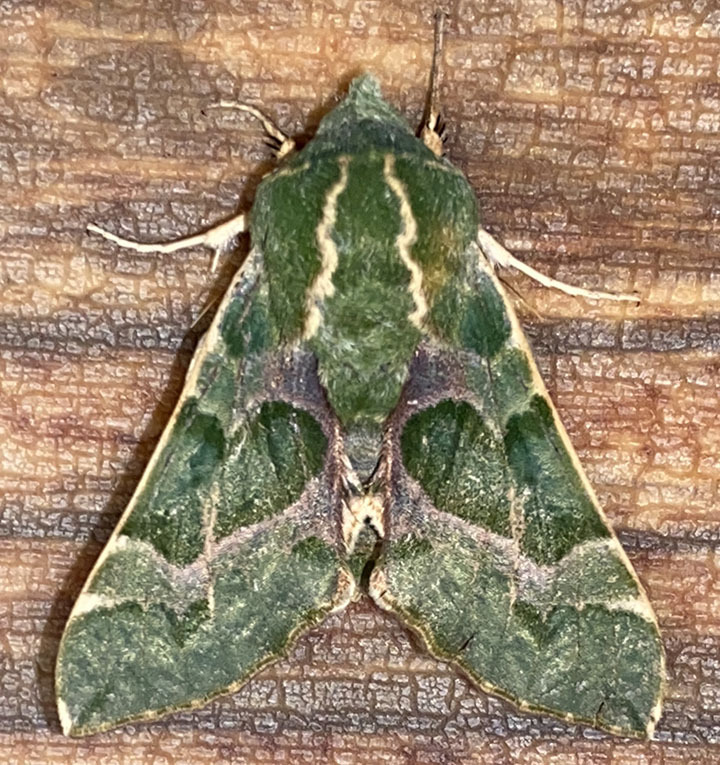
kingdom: Animalia
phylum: Arthropoda
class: Insecta
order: Lepidoptera
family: Sphingidae
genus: Proserpinus
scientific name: Proserpinus lucidus
